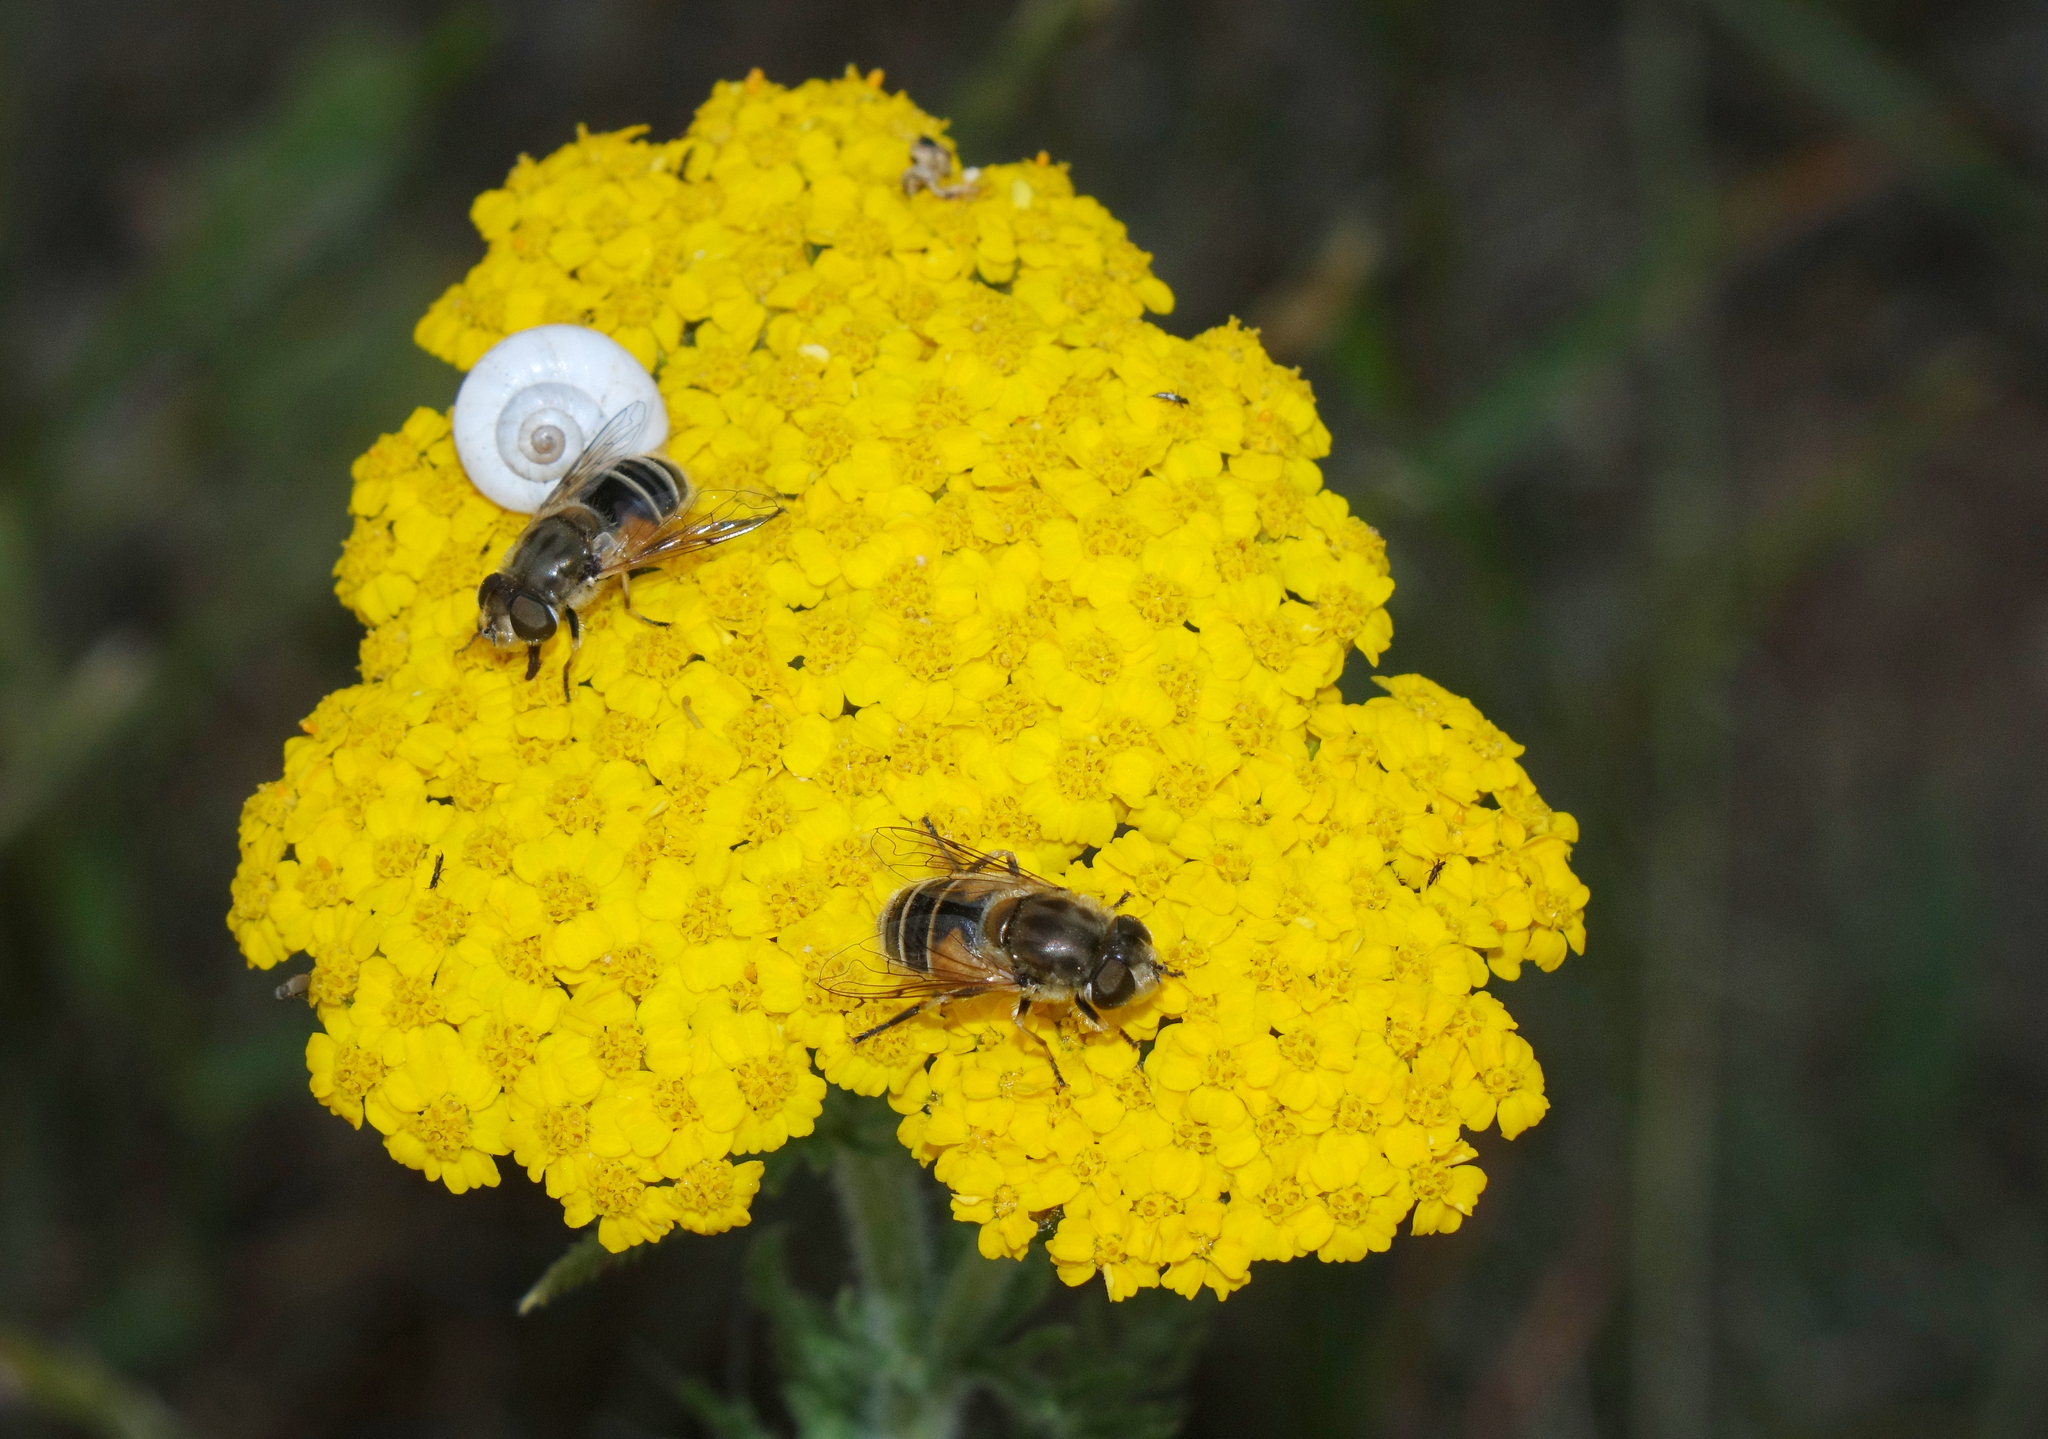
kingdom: Animalia
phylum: Arthropoda
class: Insecta
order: Diptera
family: Syrphidae
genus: Eristalis
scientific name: Eristalis arbustorum
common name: Hover fly
